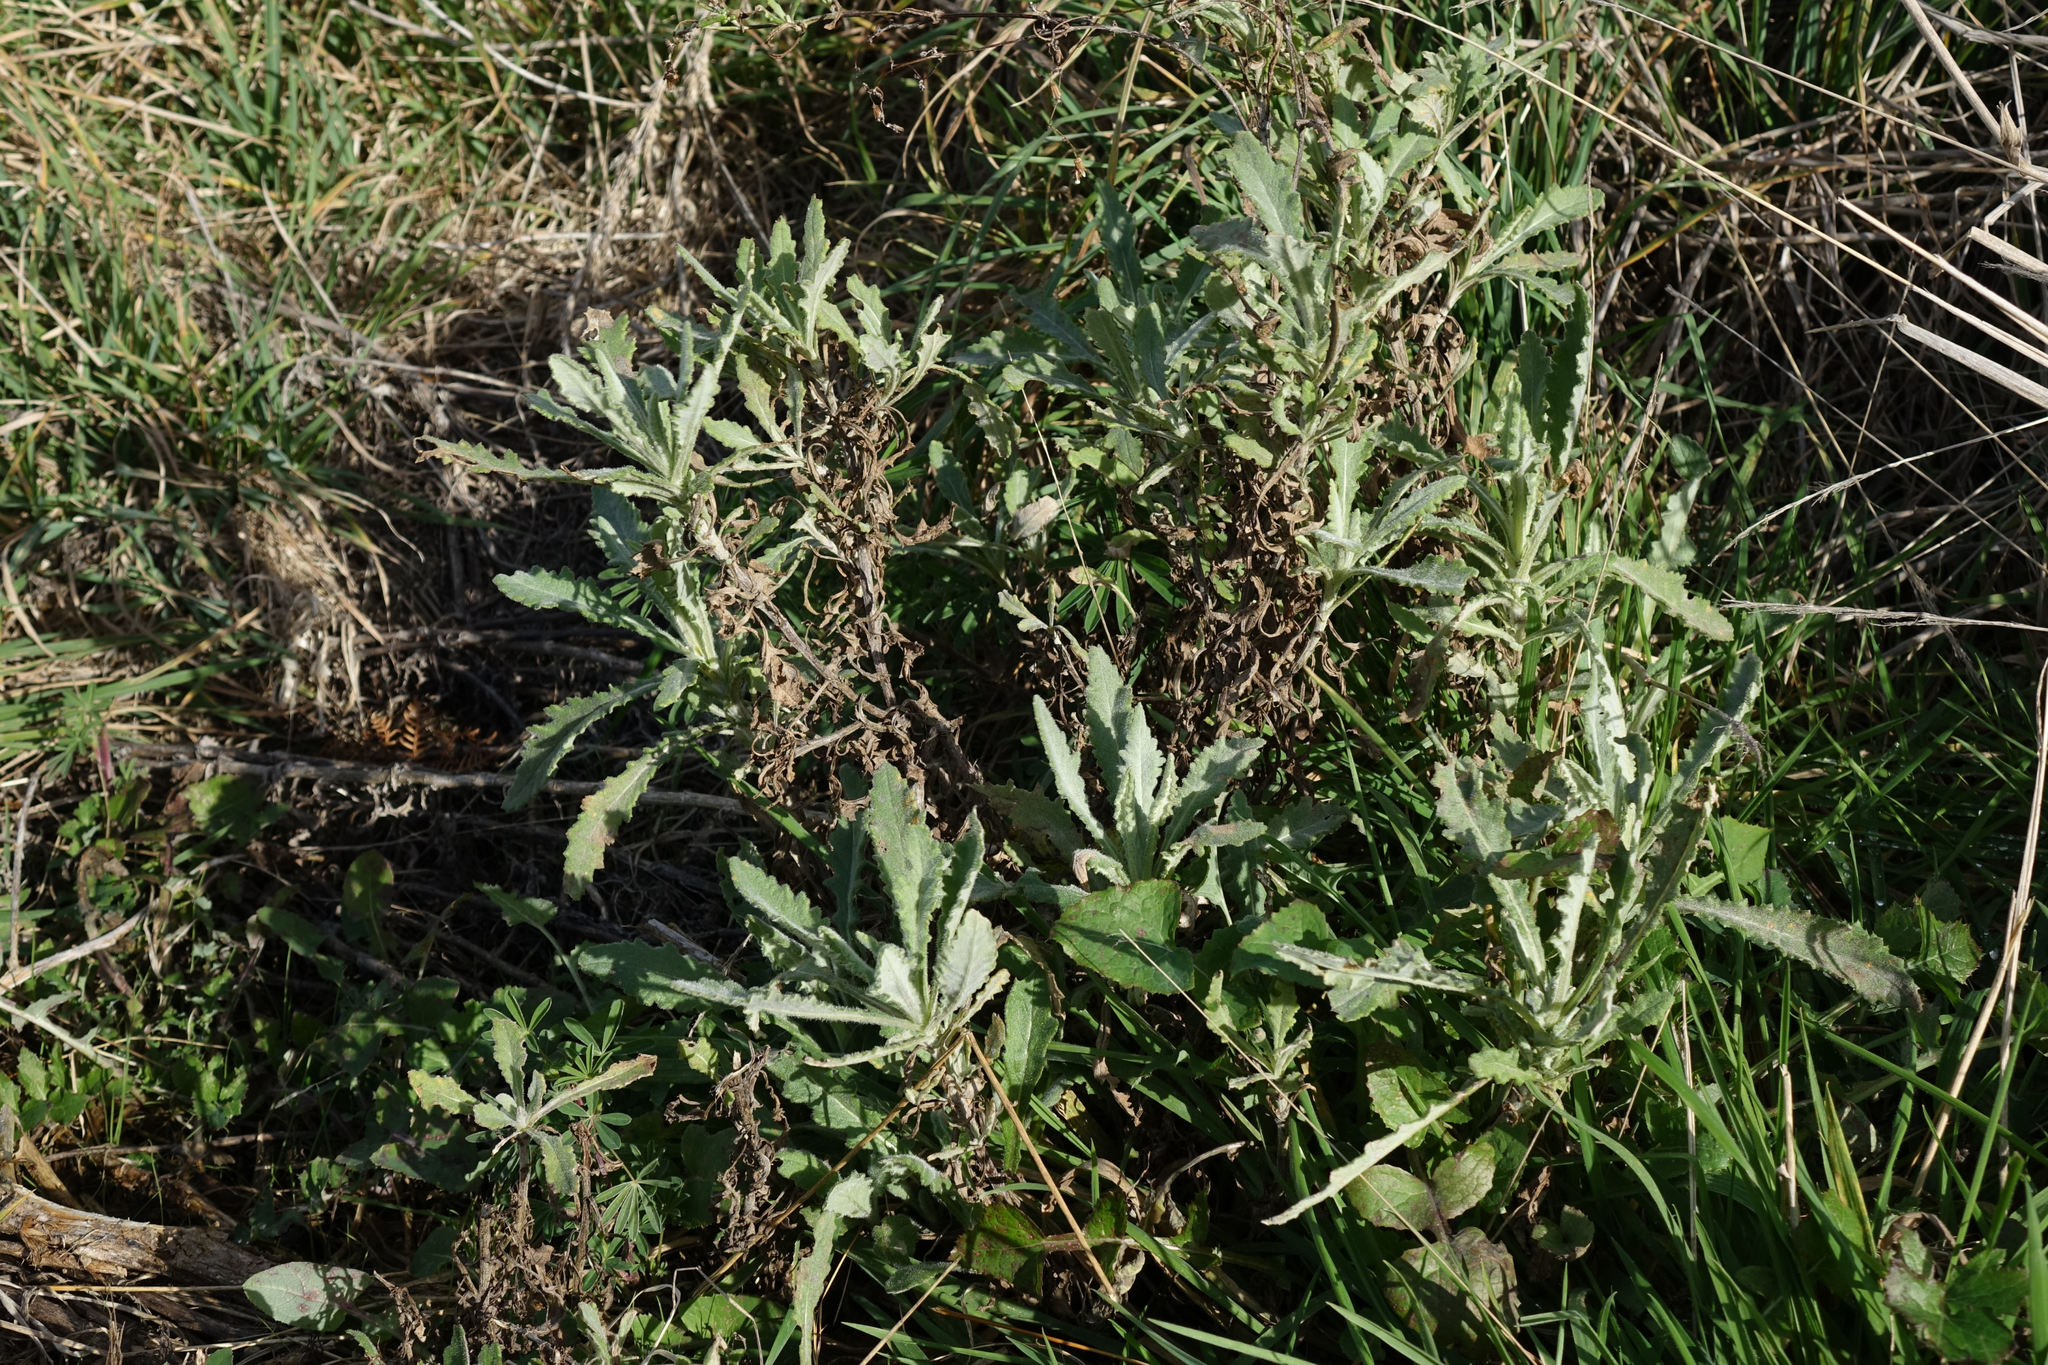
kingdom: Plantae
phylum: Tracheophyta
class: Magnoliopsida
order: Asterales
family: Asteraceae
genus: Senecio
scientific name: Senecio glomeratus
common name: Cutleaf burnweed
